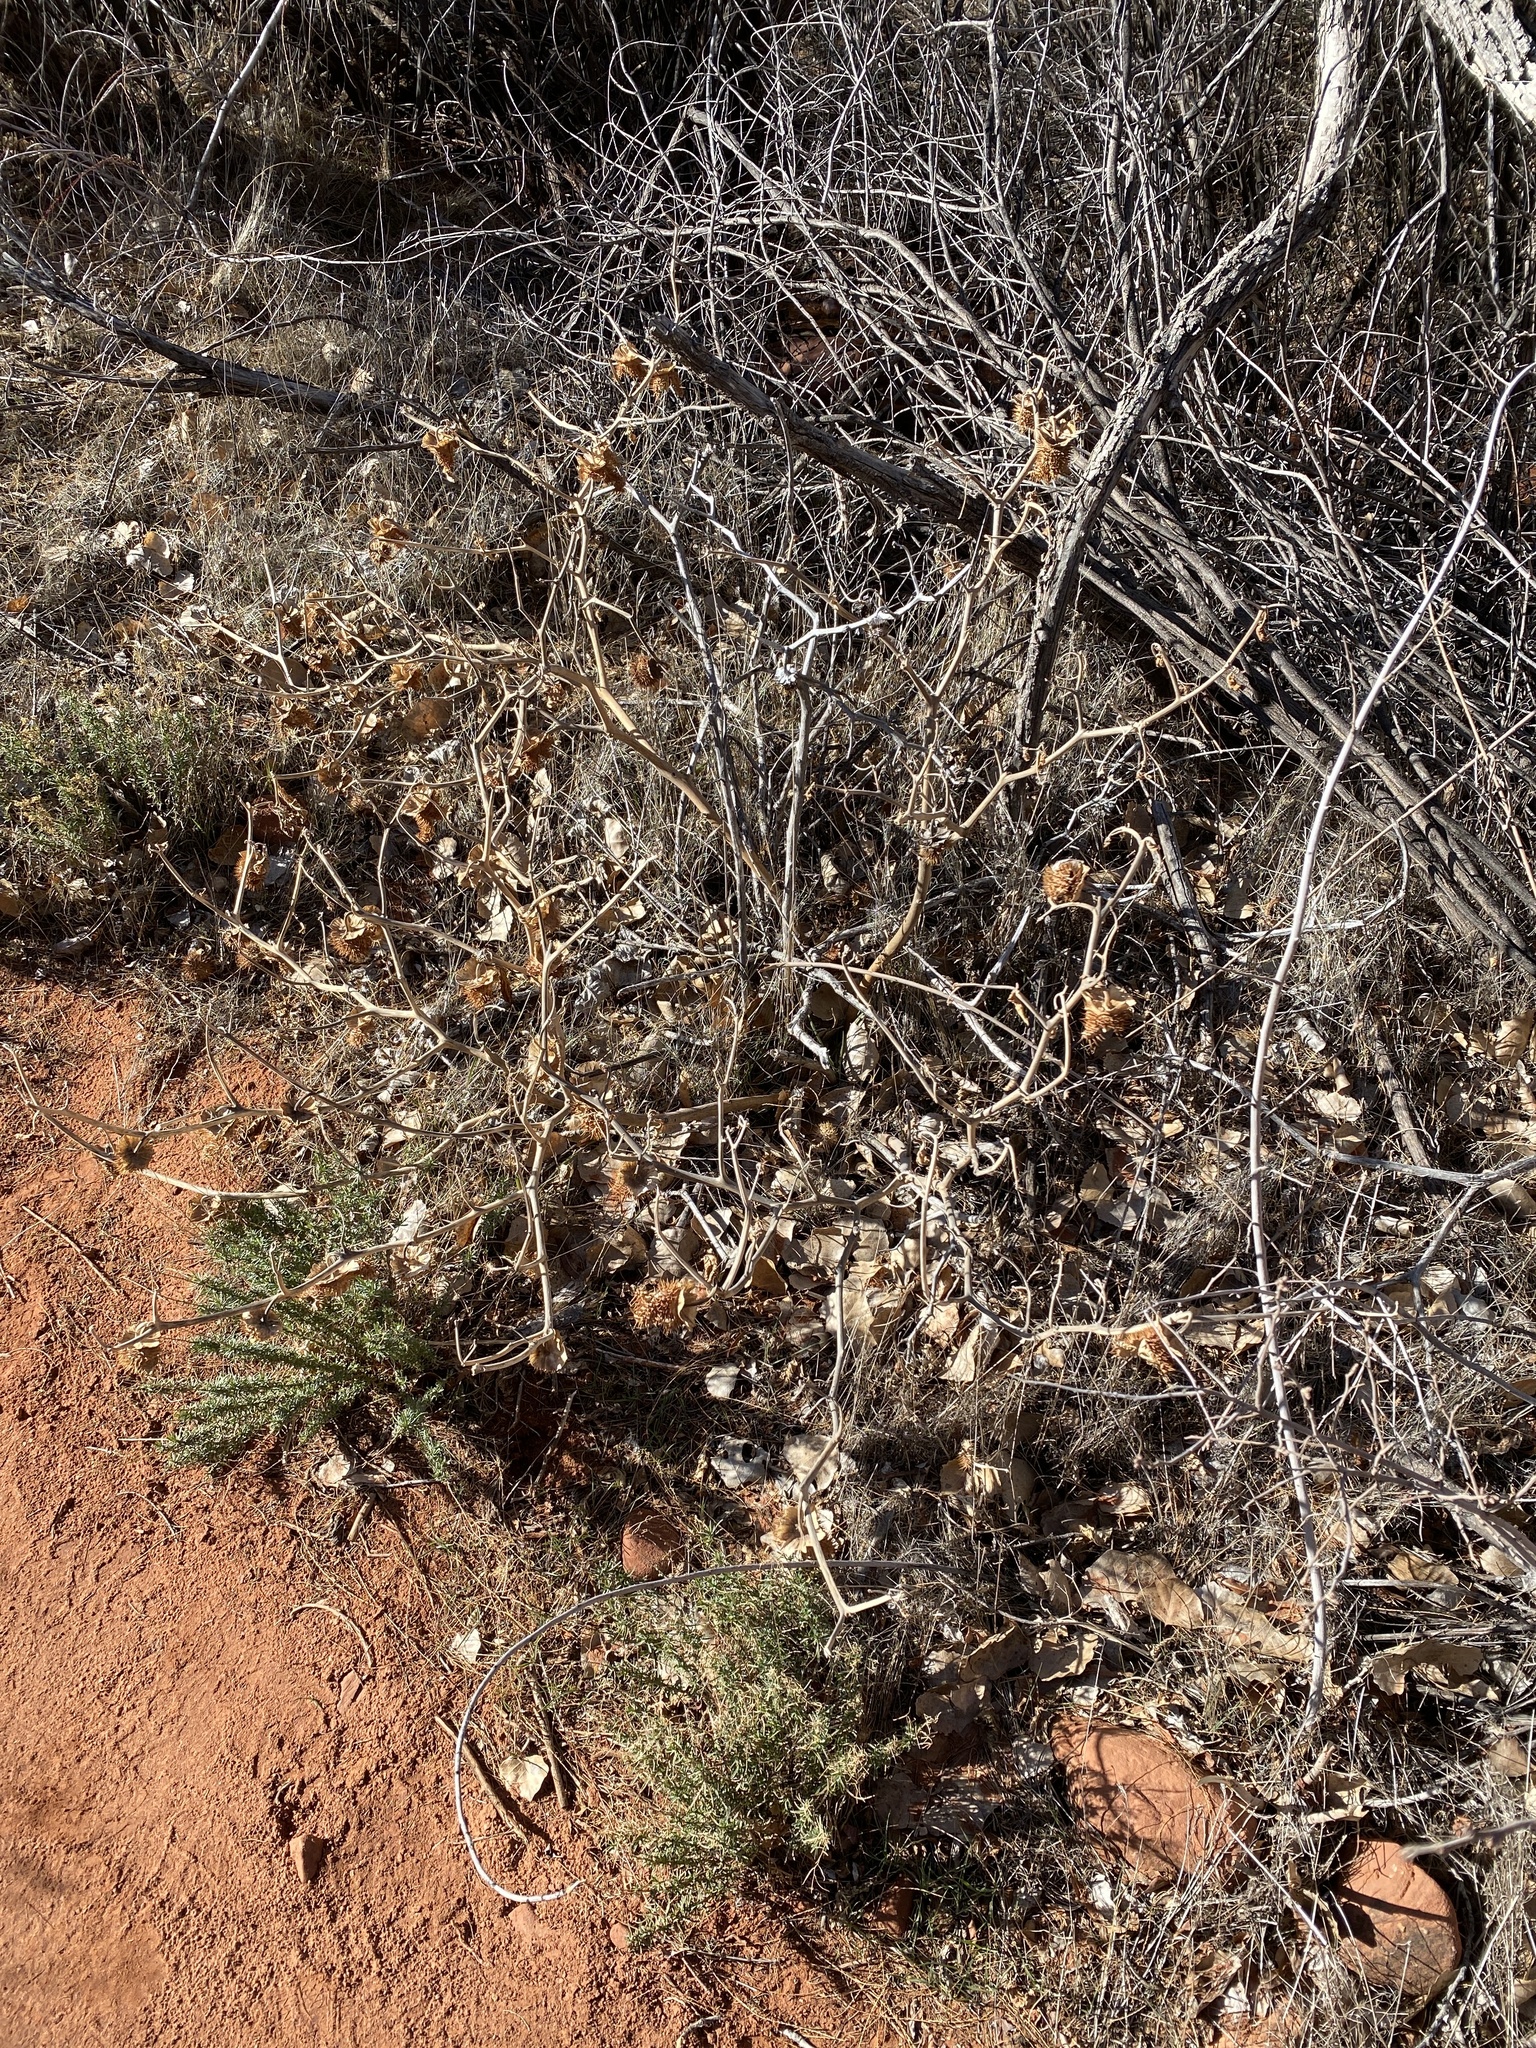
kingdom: Plantae
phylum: Tracheophyta
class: Magnoliopsida
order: Solanales
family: Solanaceae
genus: Datura
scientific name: Datura wrightii
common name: Sacred thorn-apple
